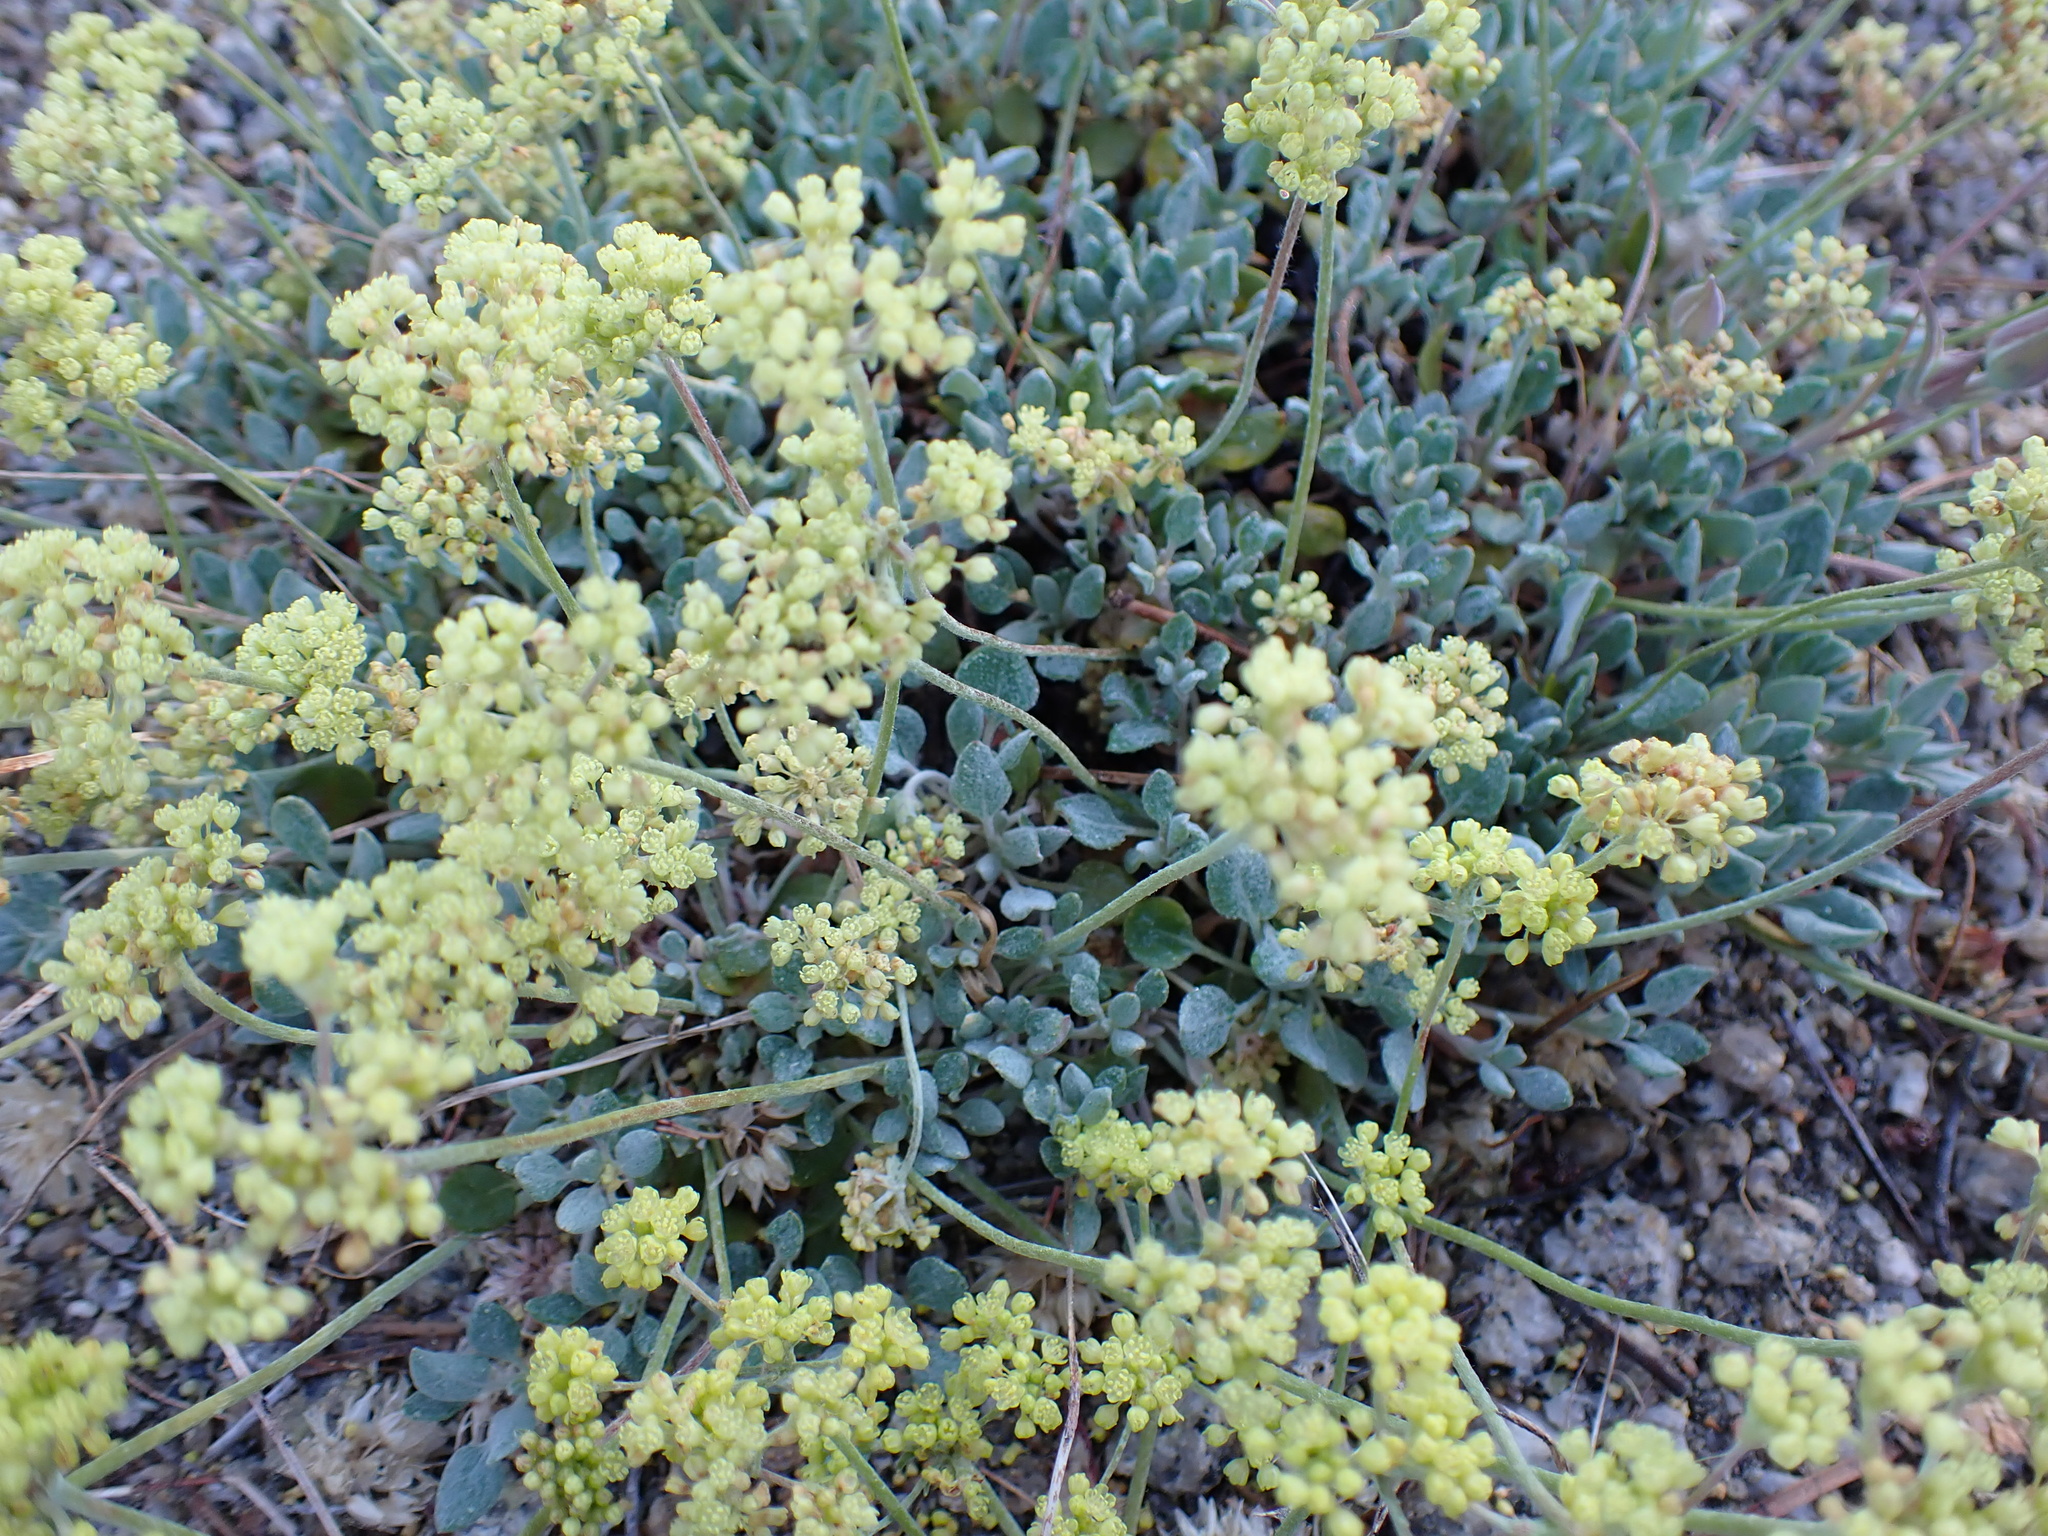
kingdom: Plantae
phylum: Tracheophyta
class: Magnoliopsida
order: Caryophyllales
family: Polygonaceae
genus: Eriogonum
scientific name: Eriogonum incanum
